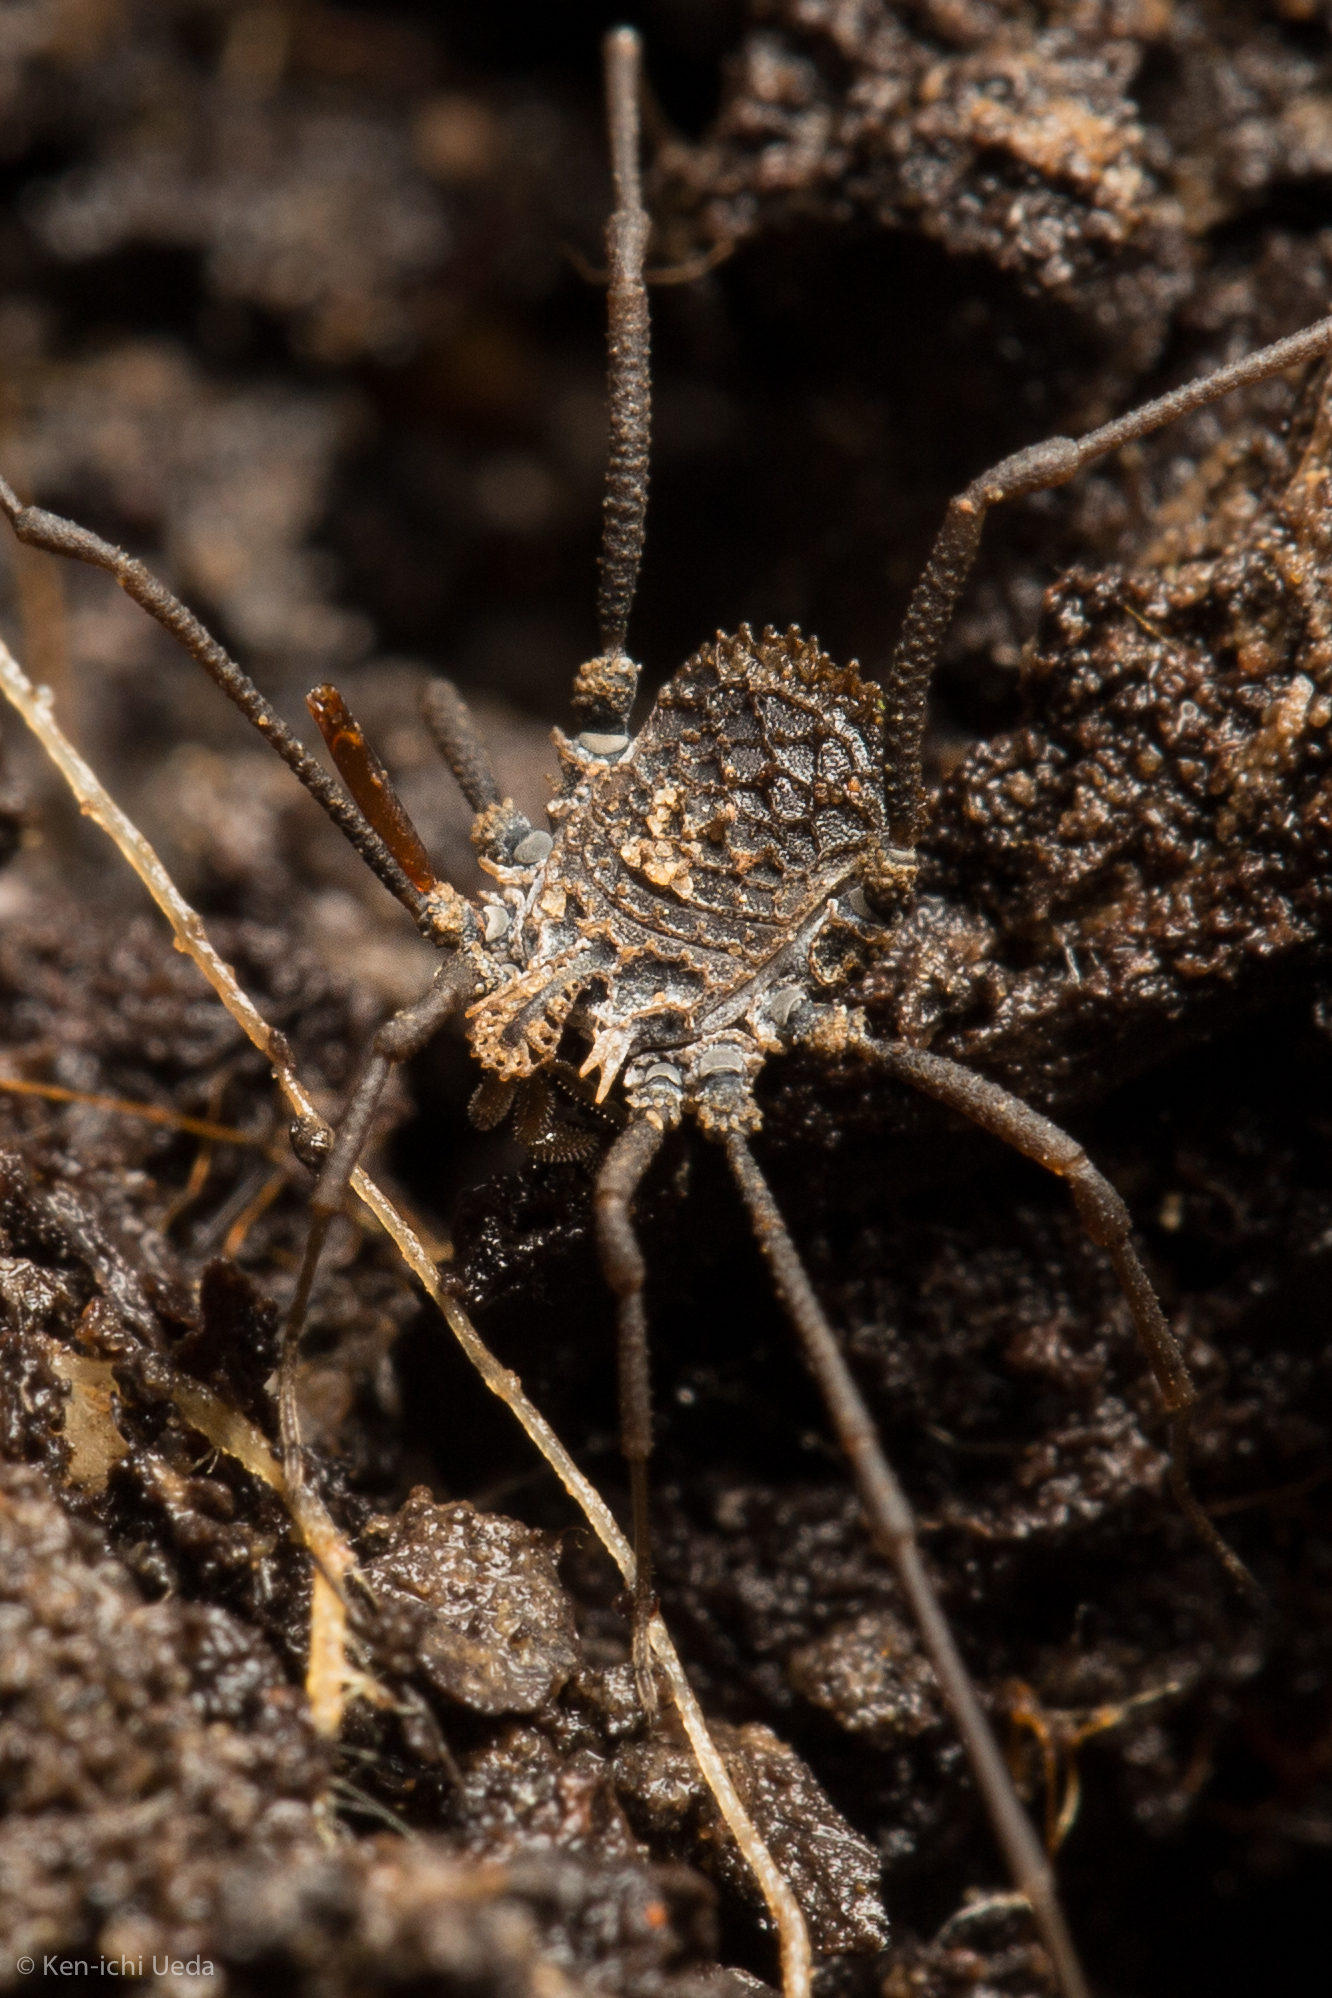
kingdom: Animalia
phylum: Arthropoda
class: Arachnida
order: Opiliones
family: Nemastomatidae
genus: Ortholasma
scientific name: Ortholasma rugosum
